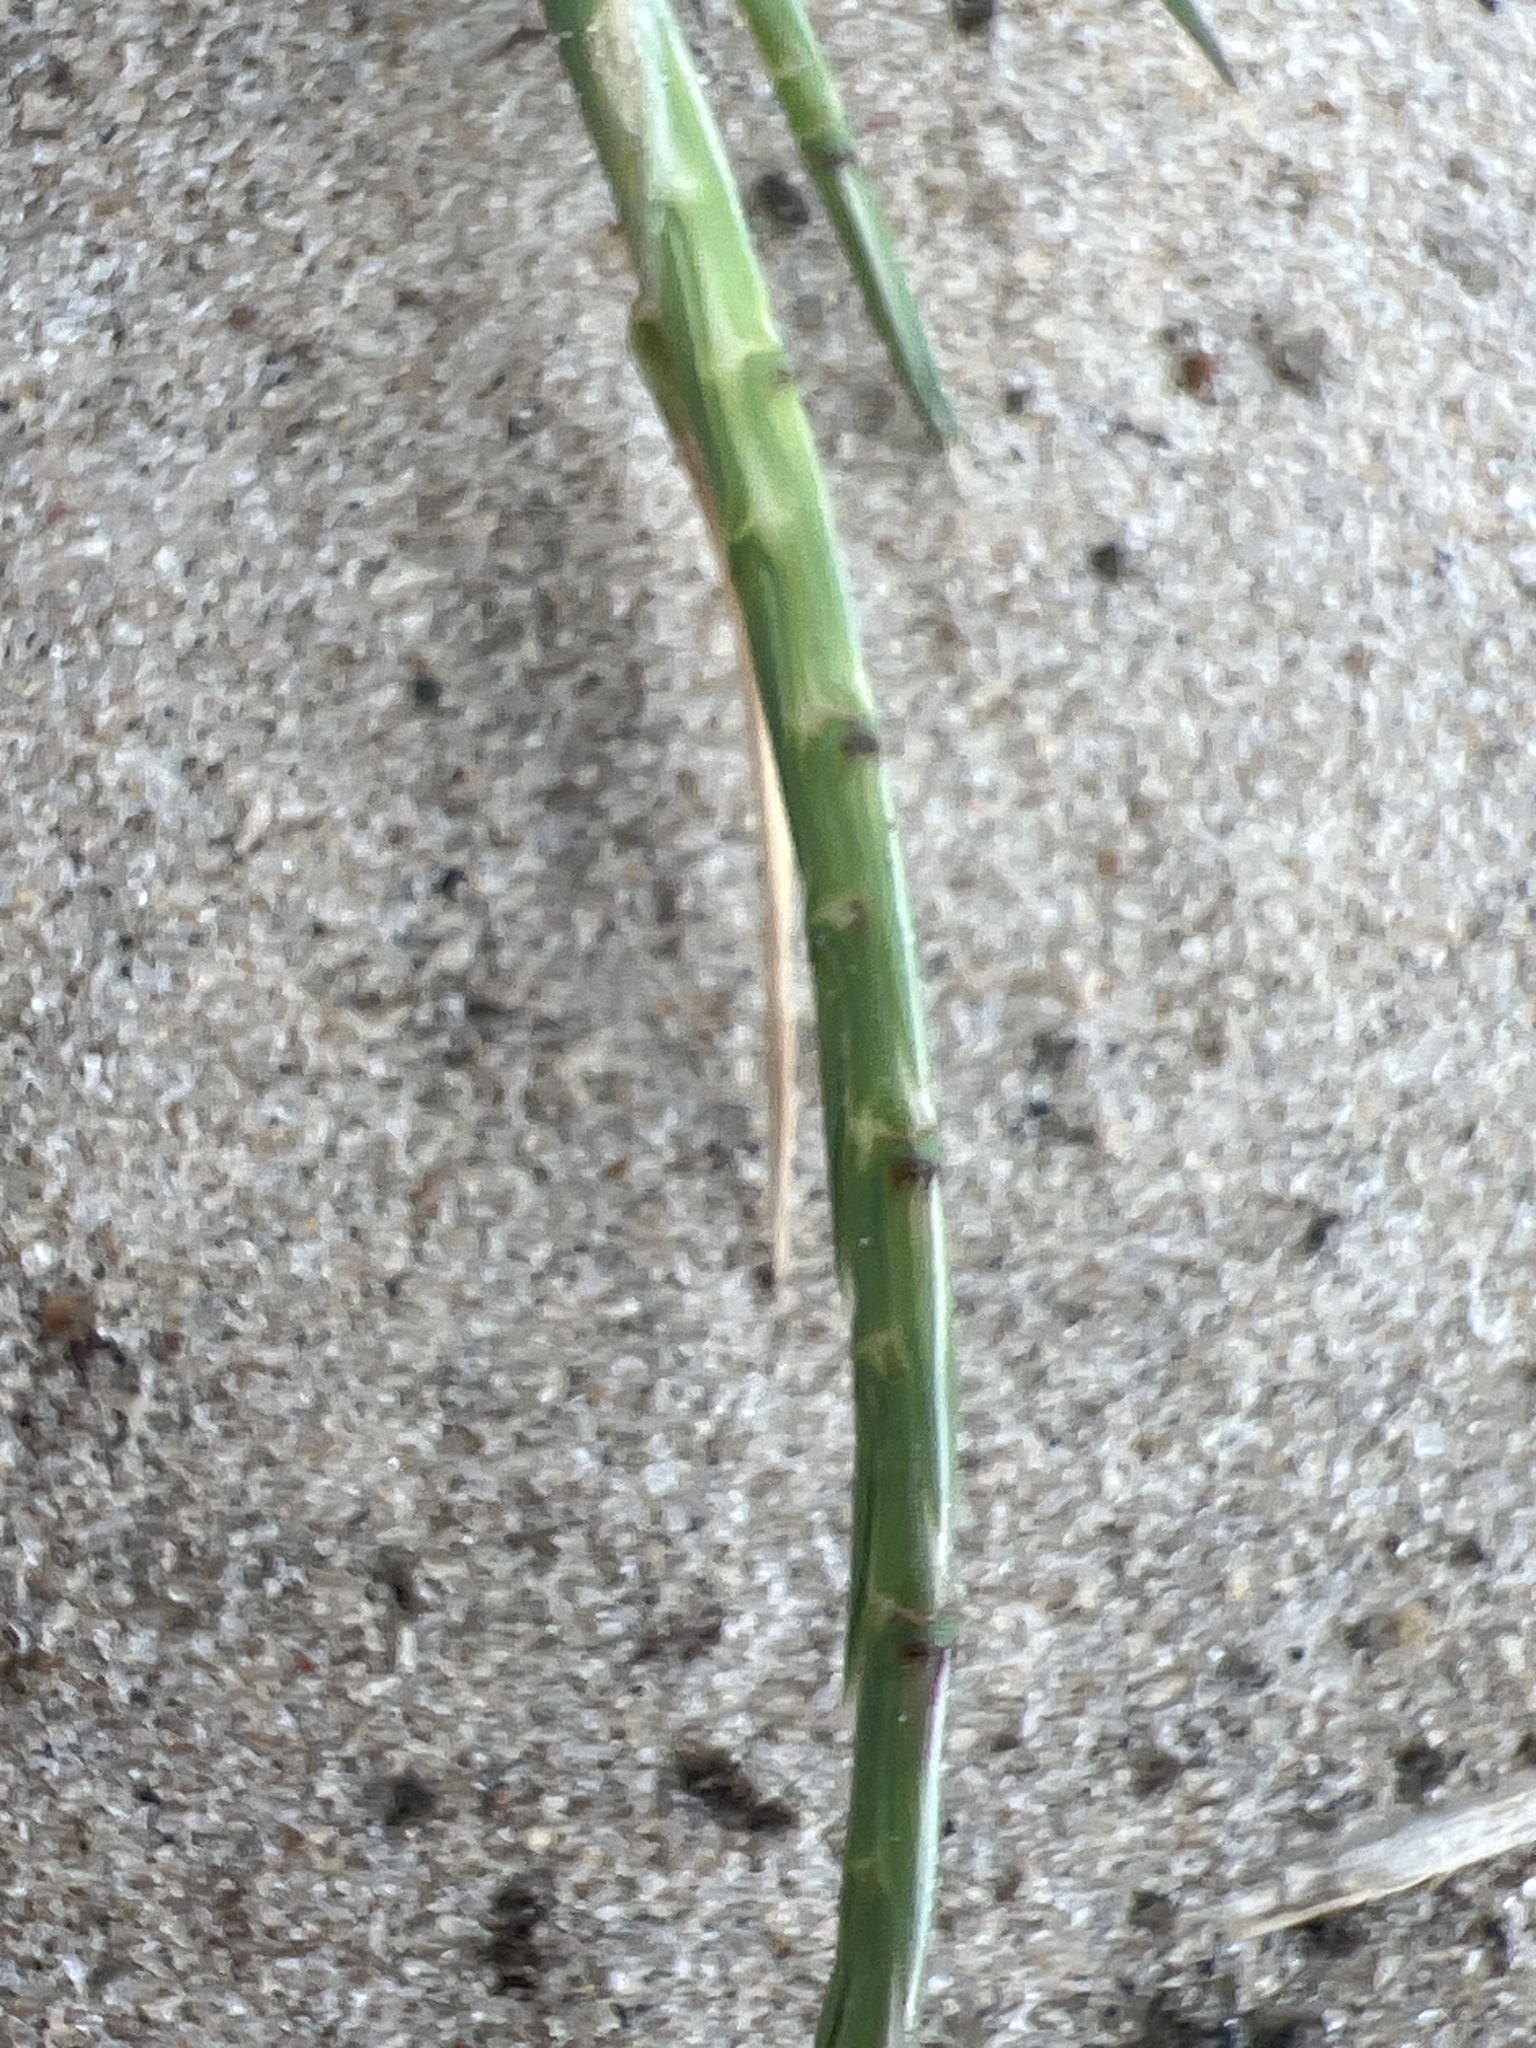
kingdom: Plantae
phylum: Tracheophyta
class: Liliopsida
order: Poales
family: Poaceae
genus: Parapholis
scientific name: Parapholis incurva
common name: Curved sicklegrass
